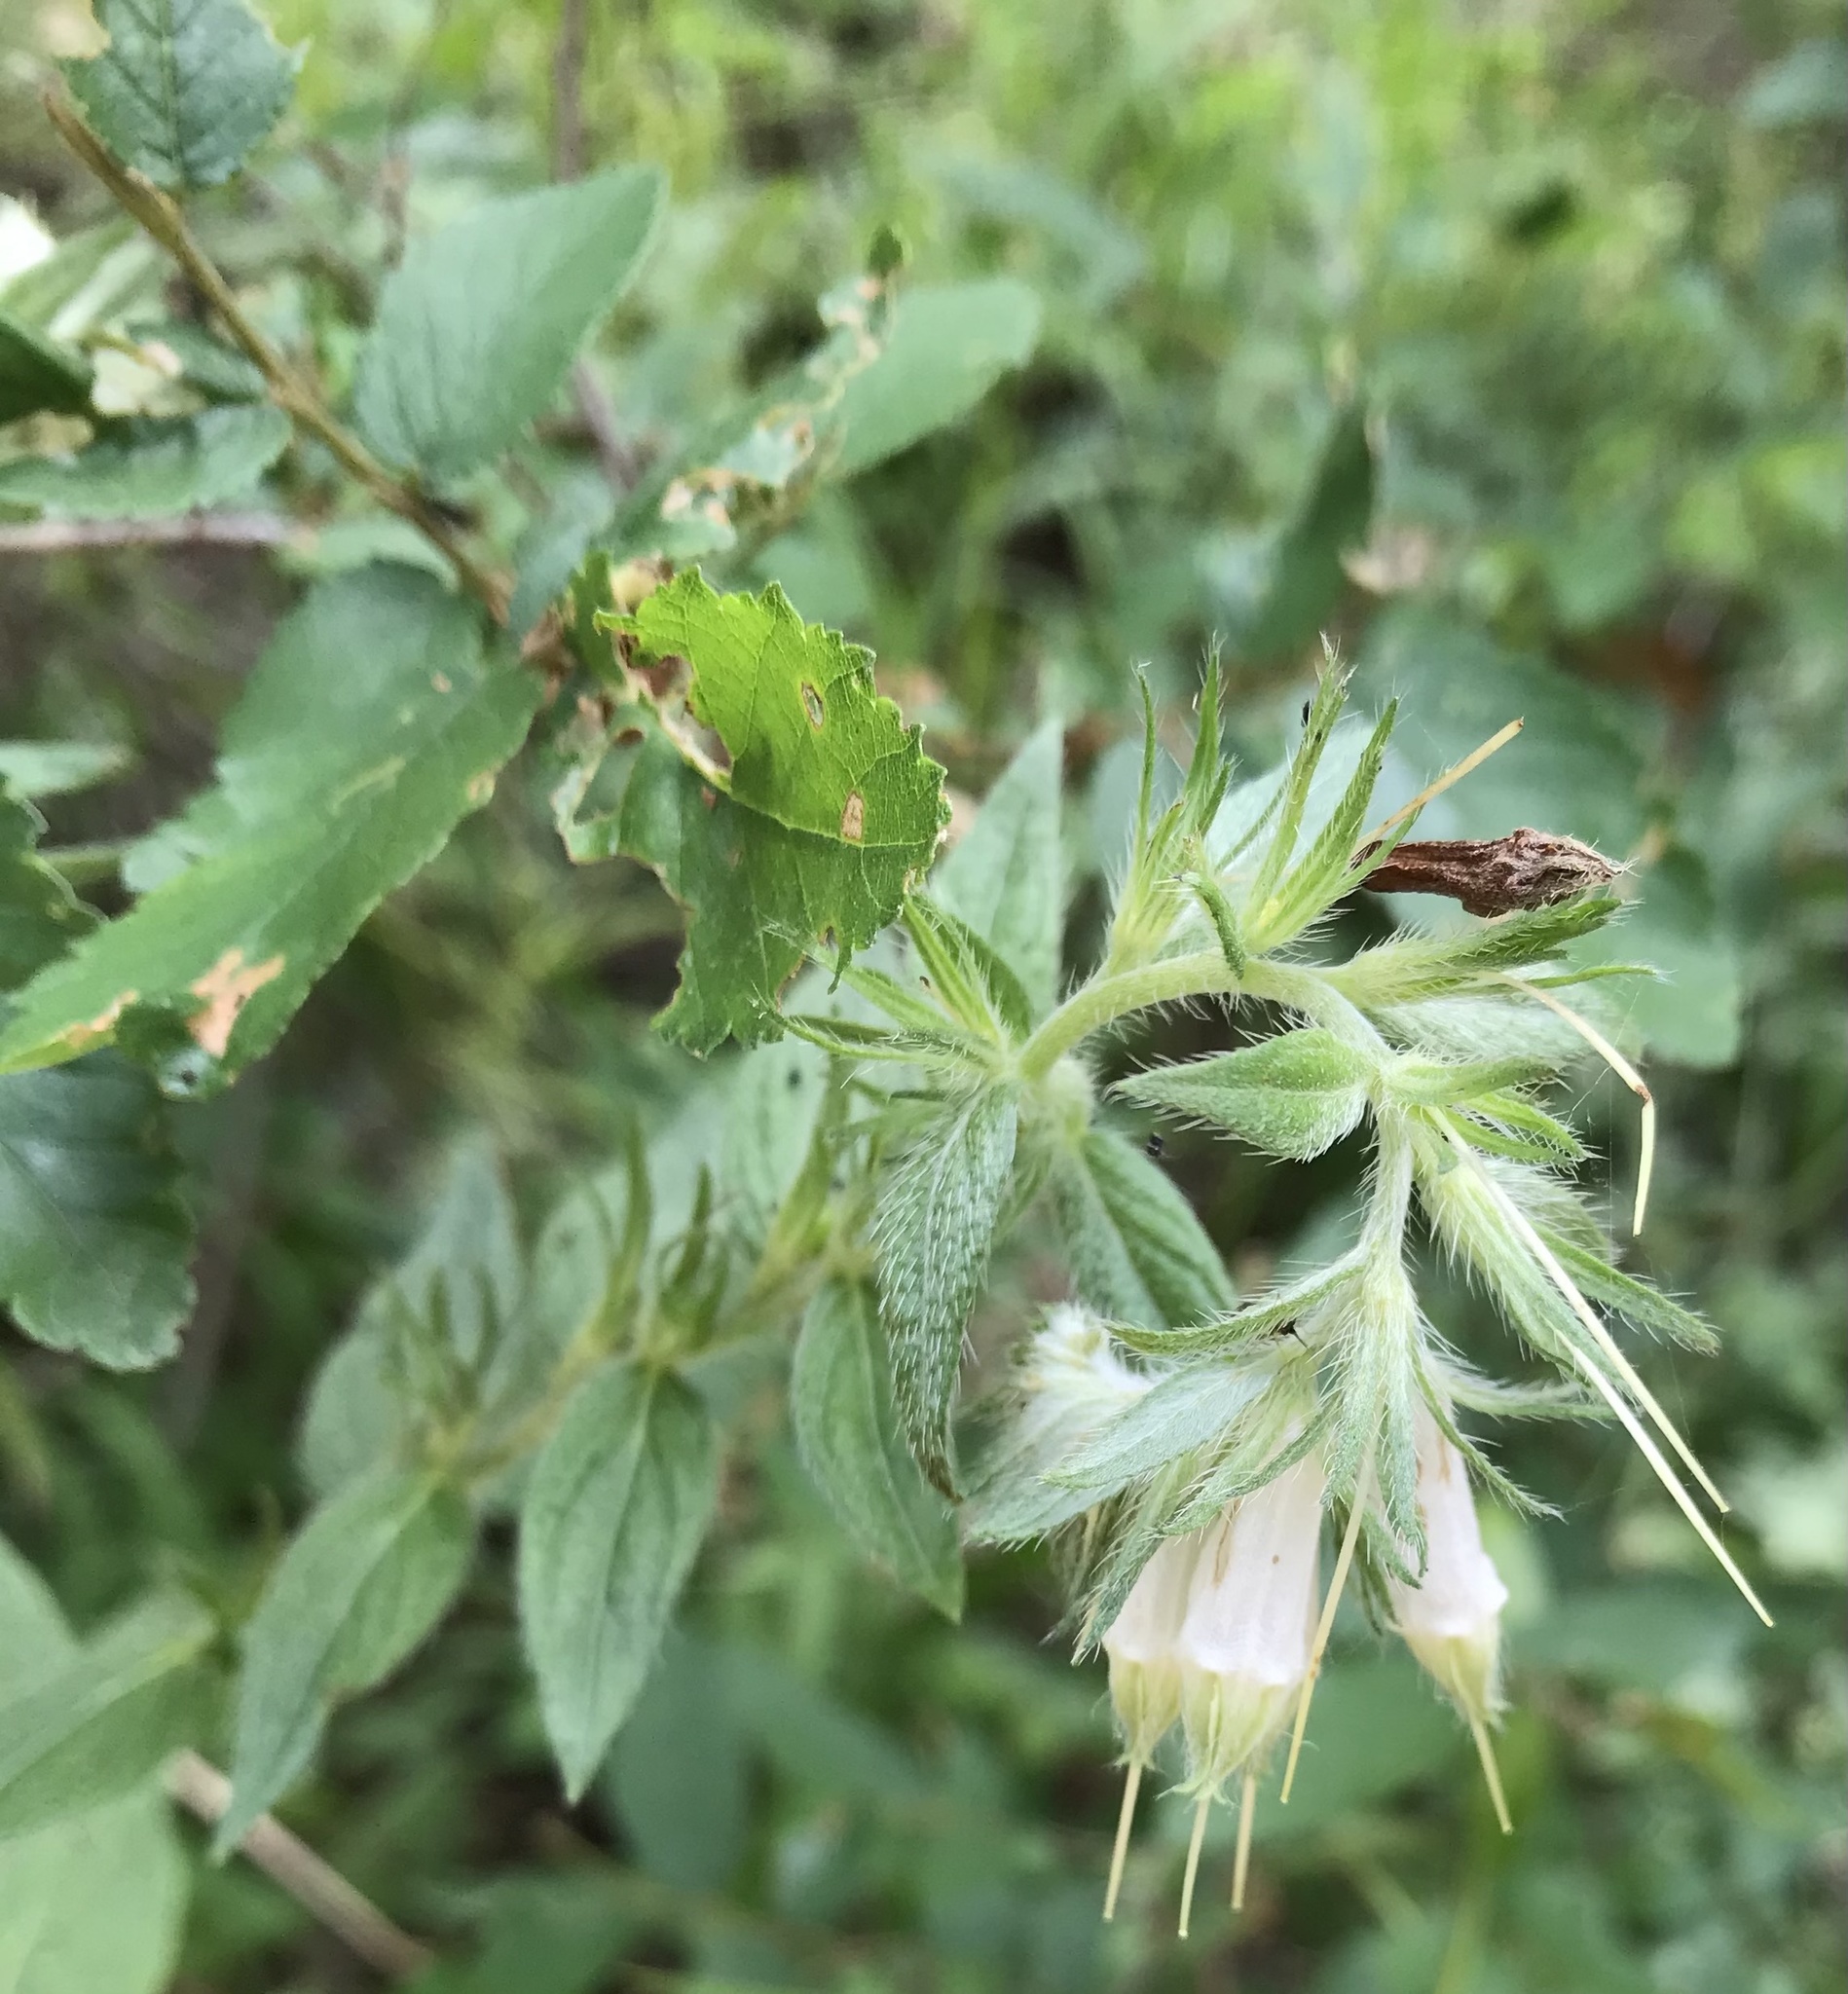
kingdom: Plantae
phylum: Tracheophyta
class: Magnoliopsida
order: Boraginales
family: Boraginaceae
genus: Lithospermum
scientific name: Lithospermum caroliniense
